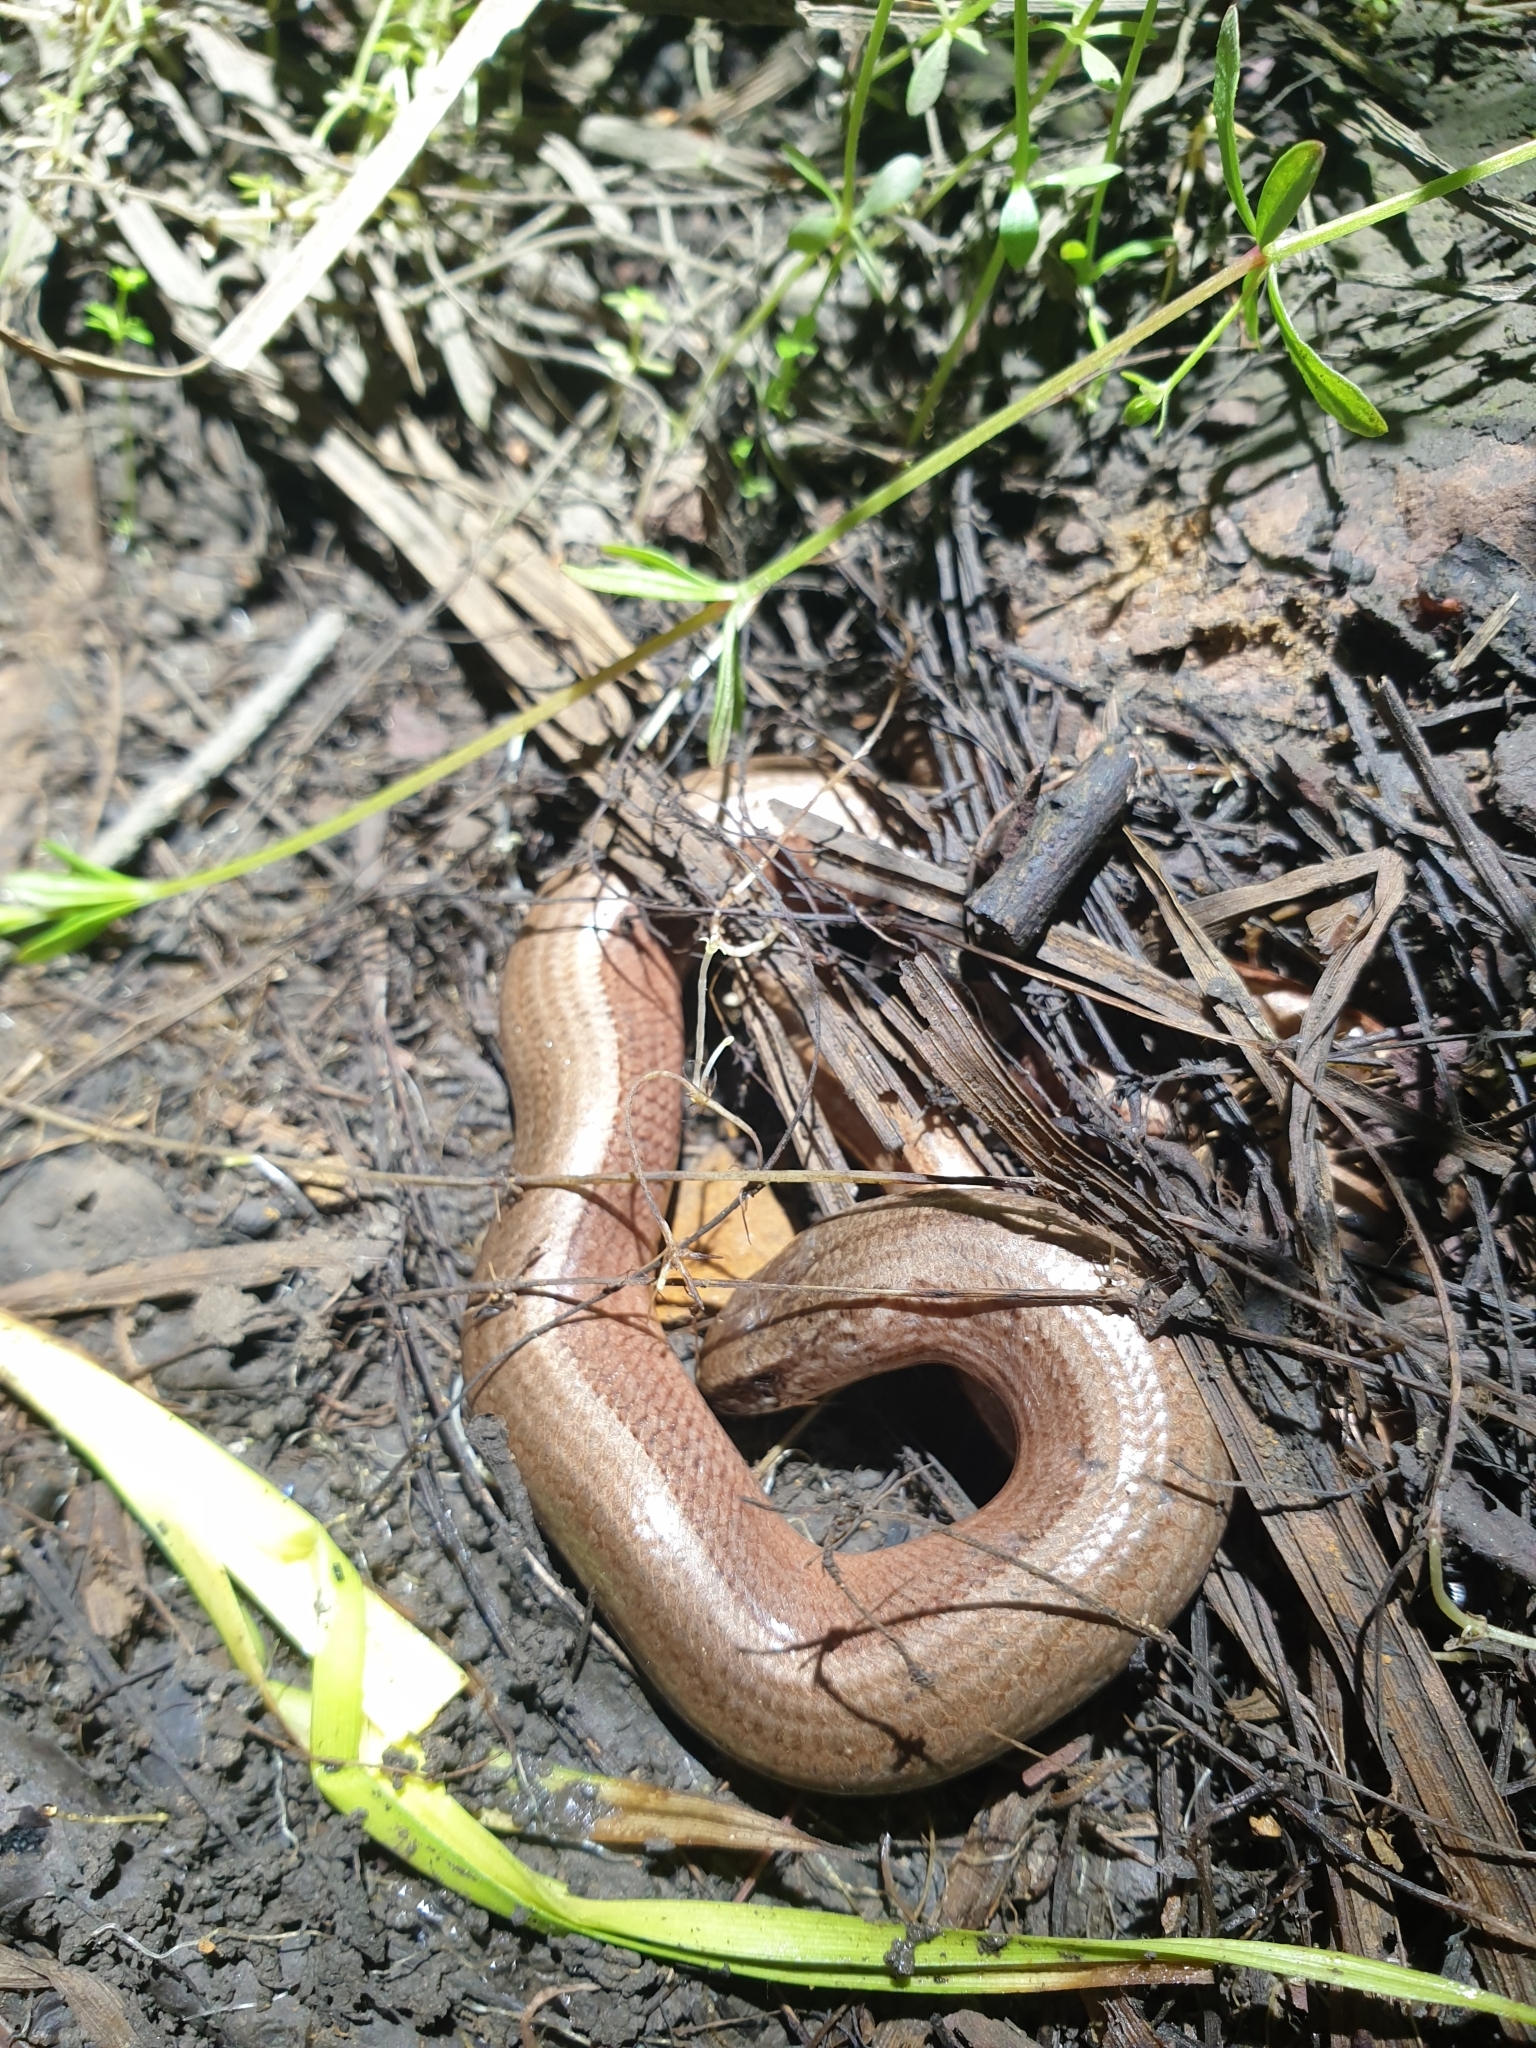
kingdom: Animalia
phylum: Chordata
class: Squamata
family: Anguidae
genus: Anguis
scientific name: Anguis fragilis
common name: Slow worm
